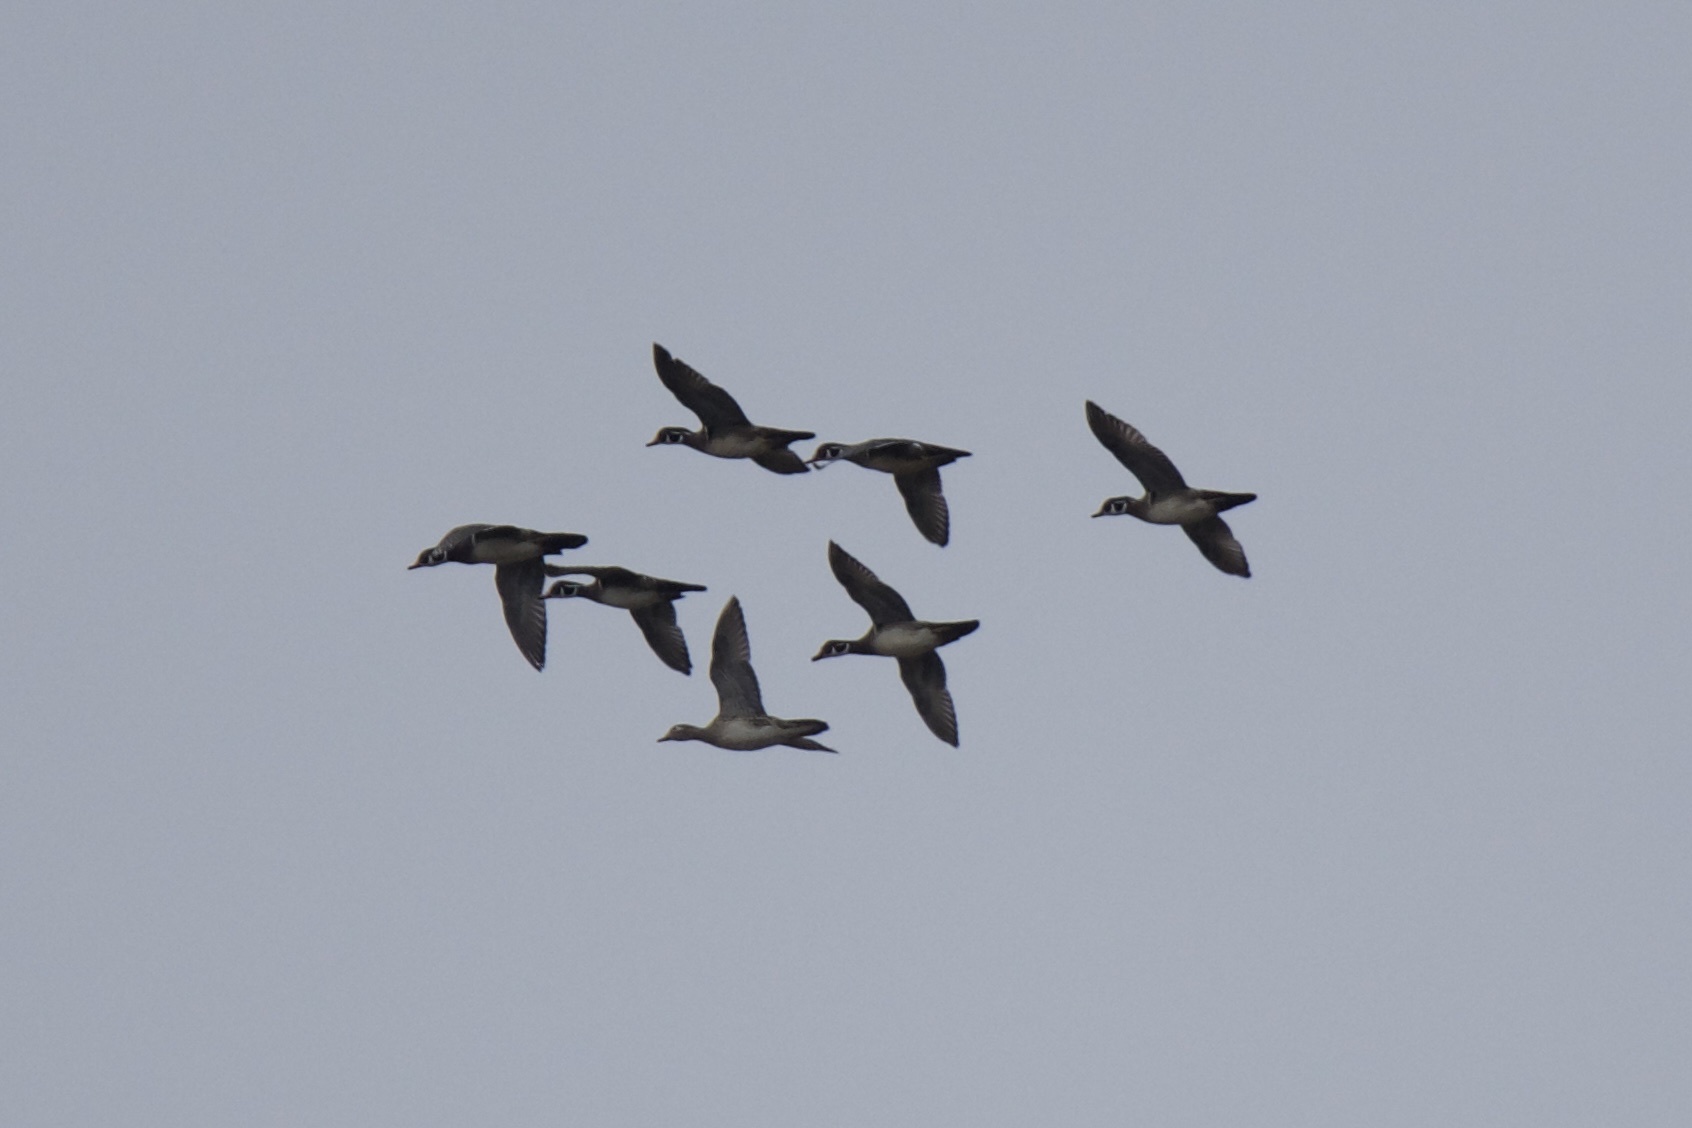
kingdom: Animalia
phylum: Chordata
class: Aves
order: Anseriformes
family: Anatidae
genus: Aix
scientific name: Aix sponsa
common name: Wood duck
